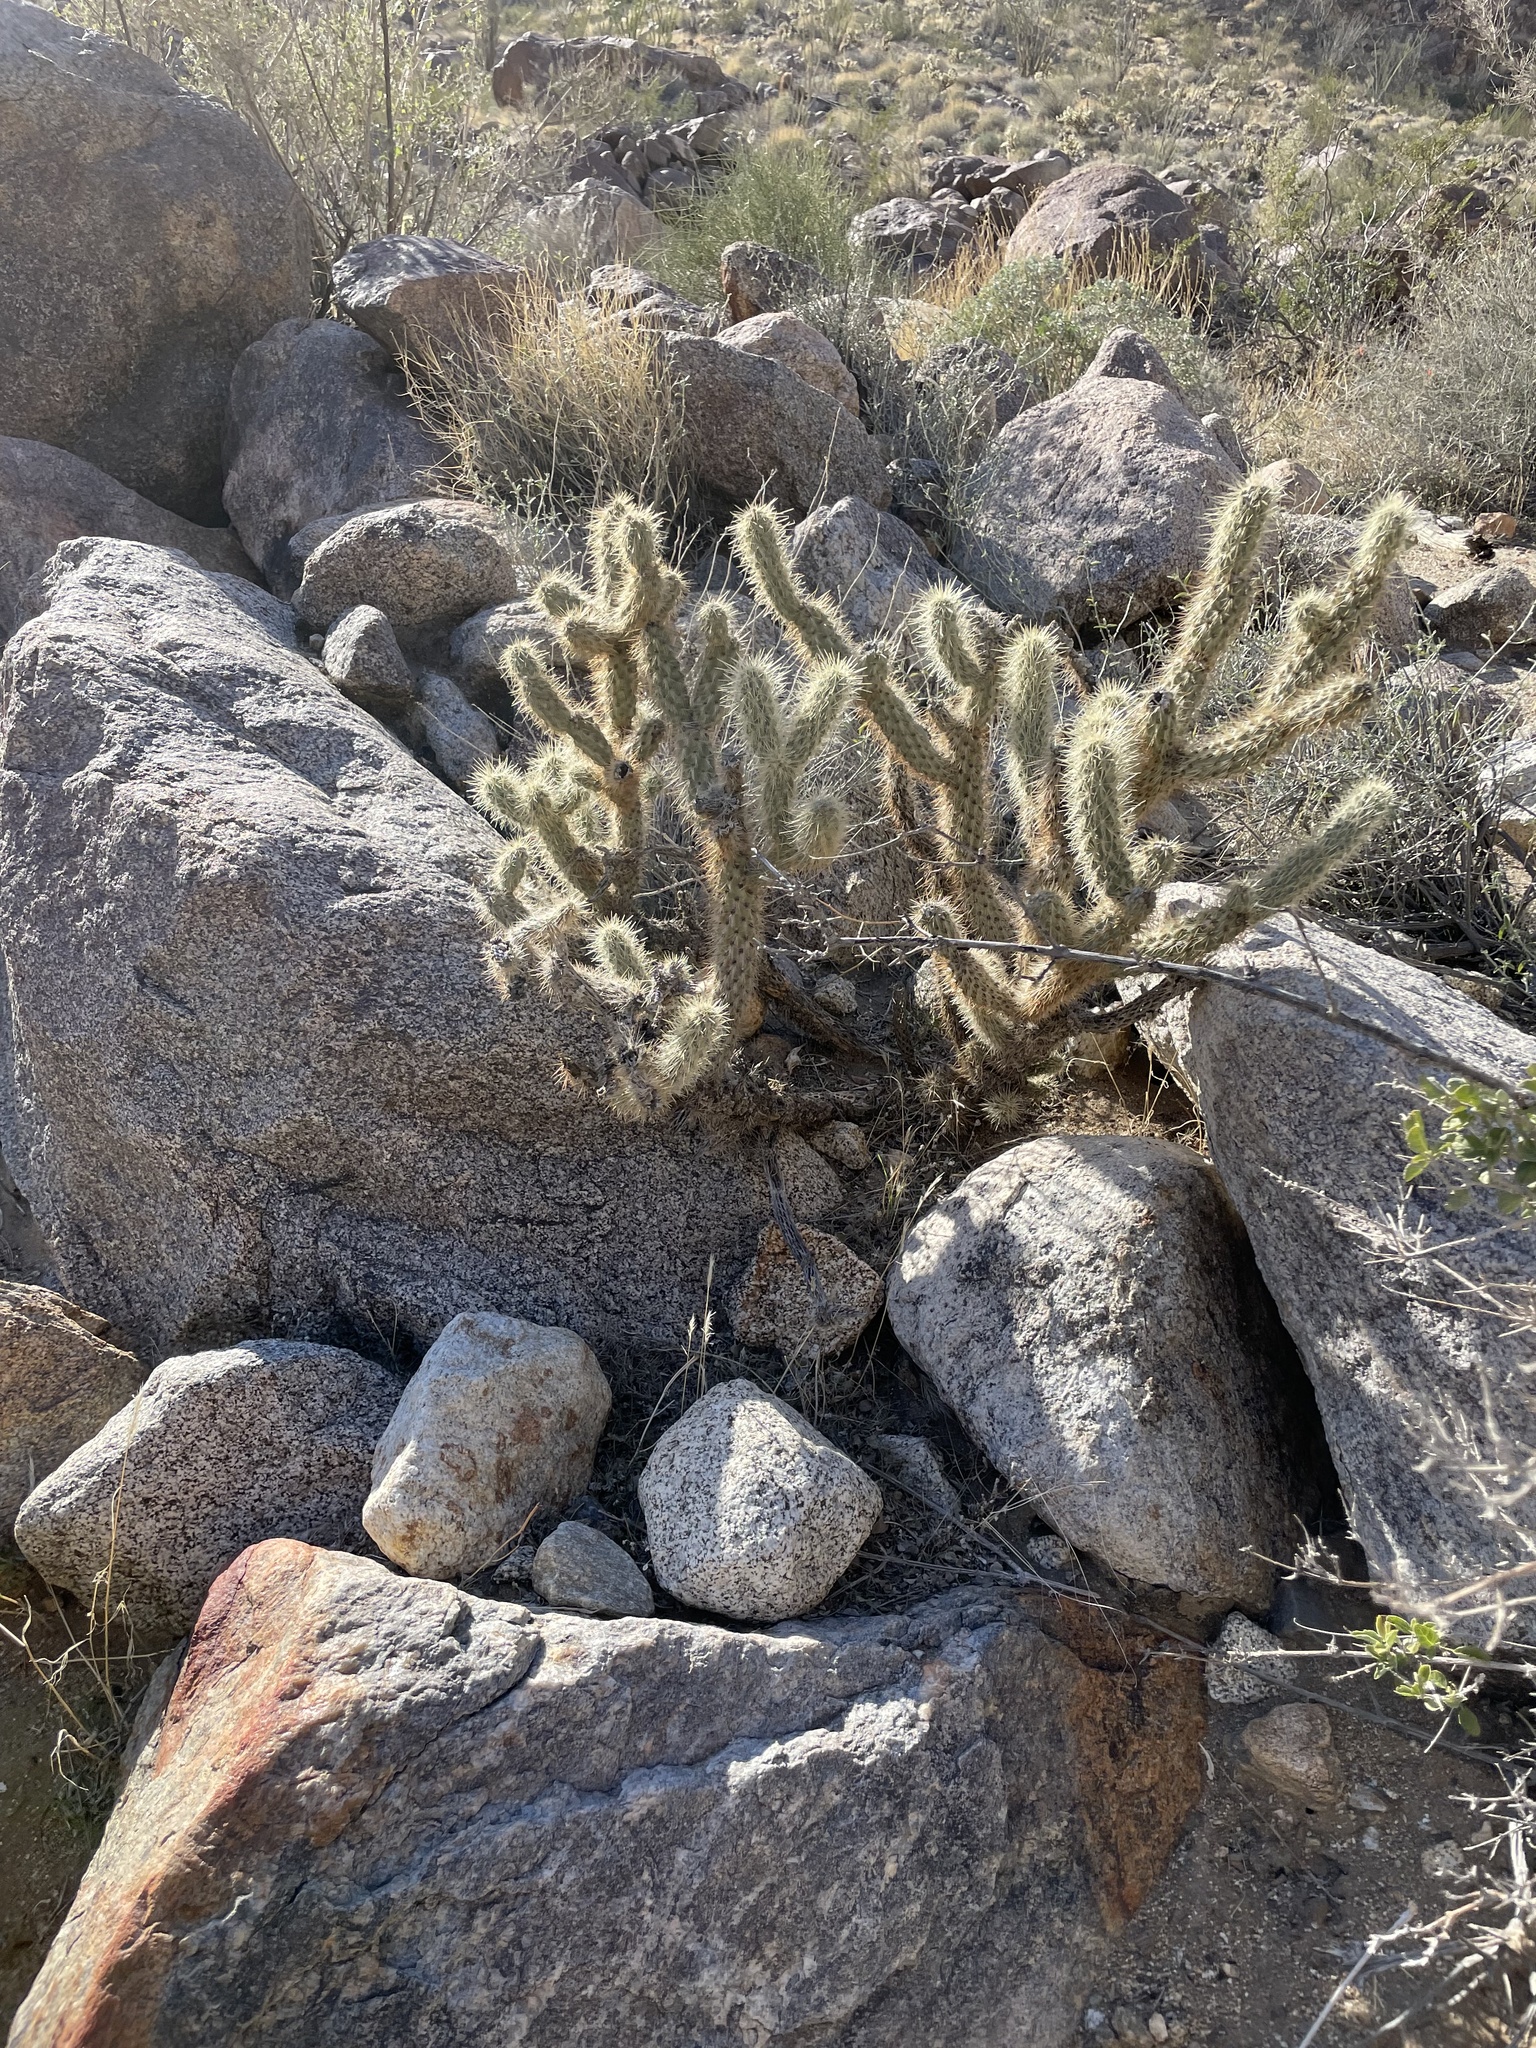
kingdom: Plantae
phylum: Tracheophyta
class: Magnoliopsida
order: Caryophyllales
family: Cactaceae
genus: Cylindropuntia
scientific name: Cylindropuntia ganderi
